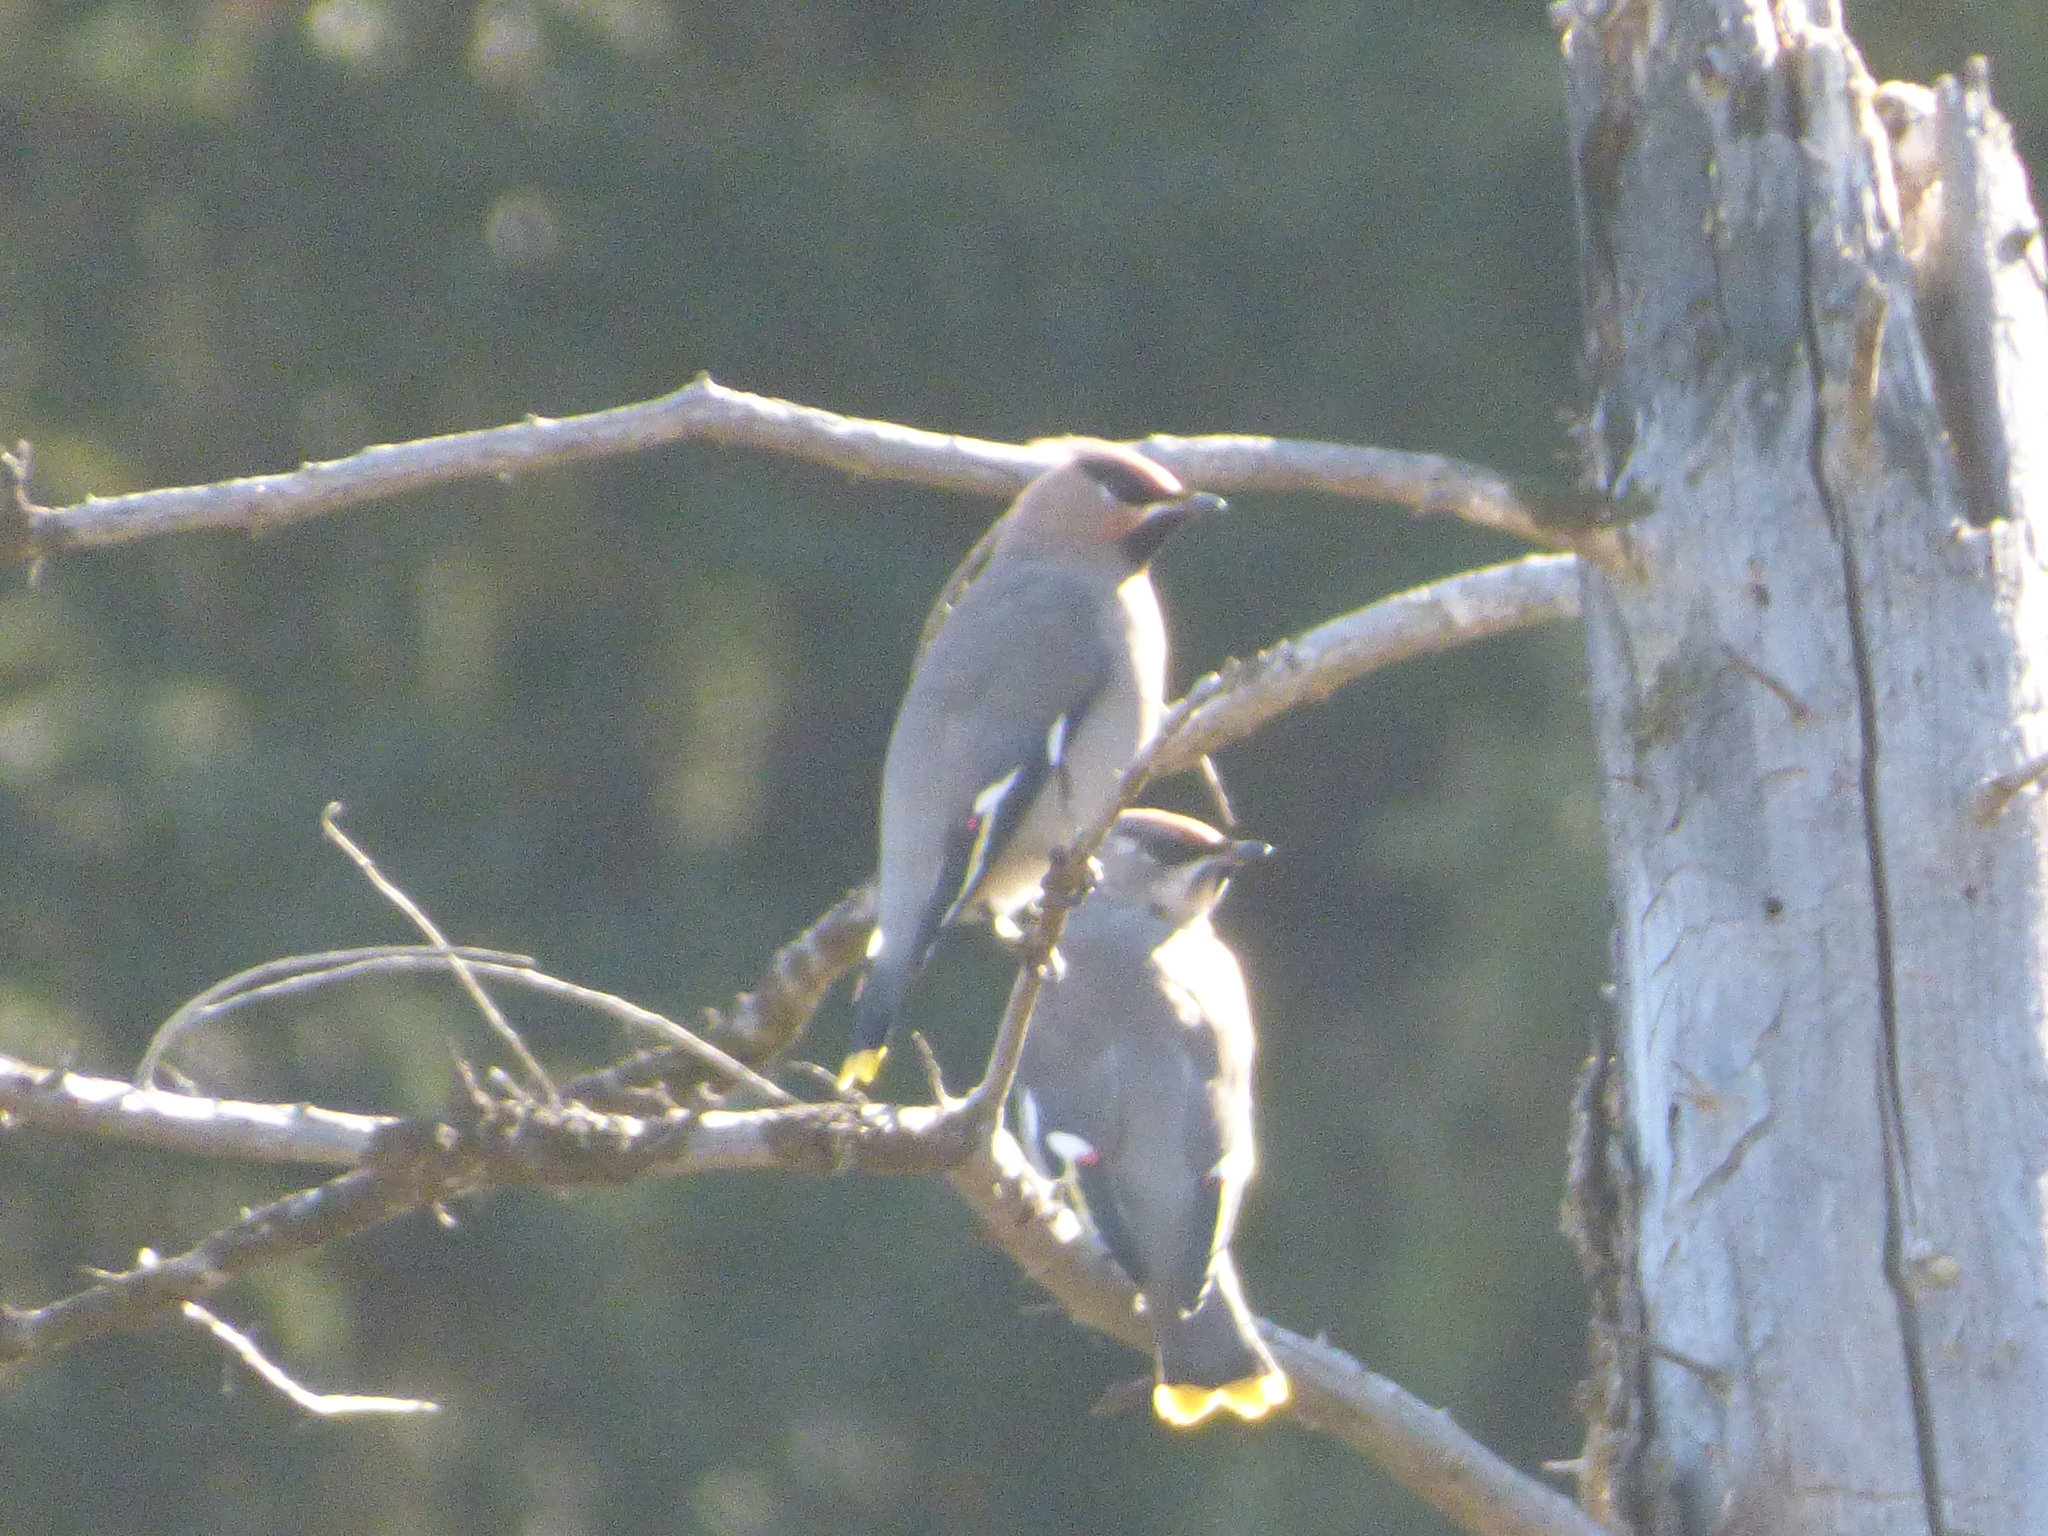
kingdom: Animalia
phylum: Chordata
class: Aves
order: Passeriformes
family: Bombycillidae
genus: Bombycilla
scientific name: Bombycilla garrulus
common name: Bohemian waxwing
